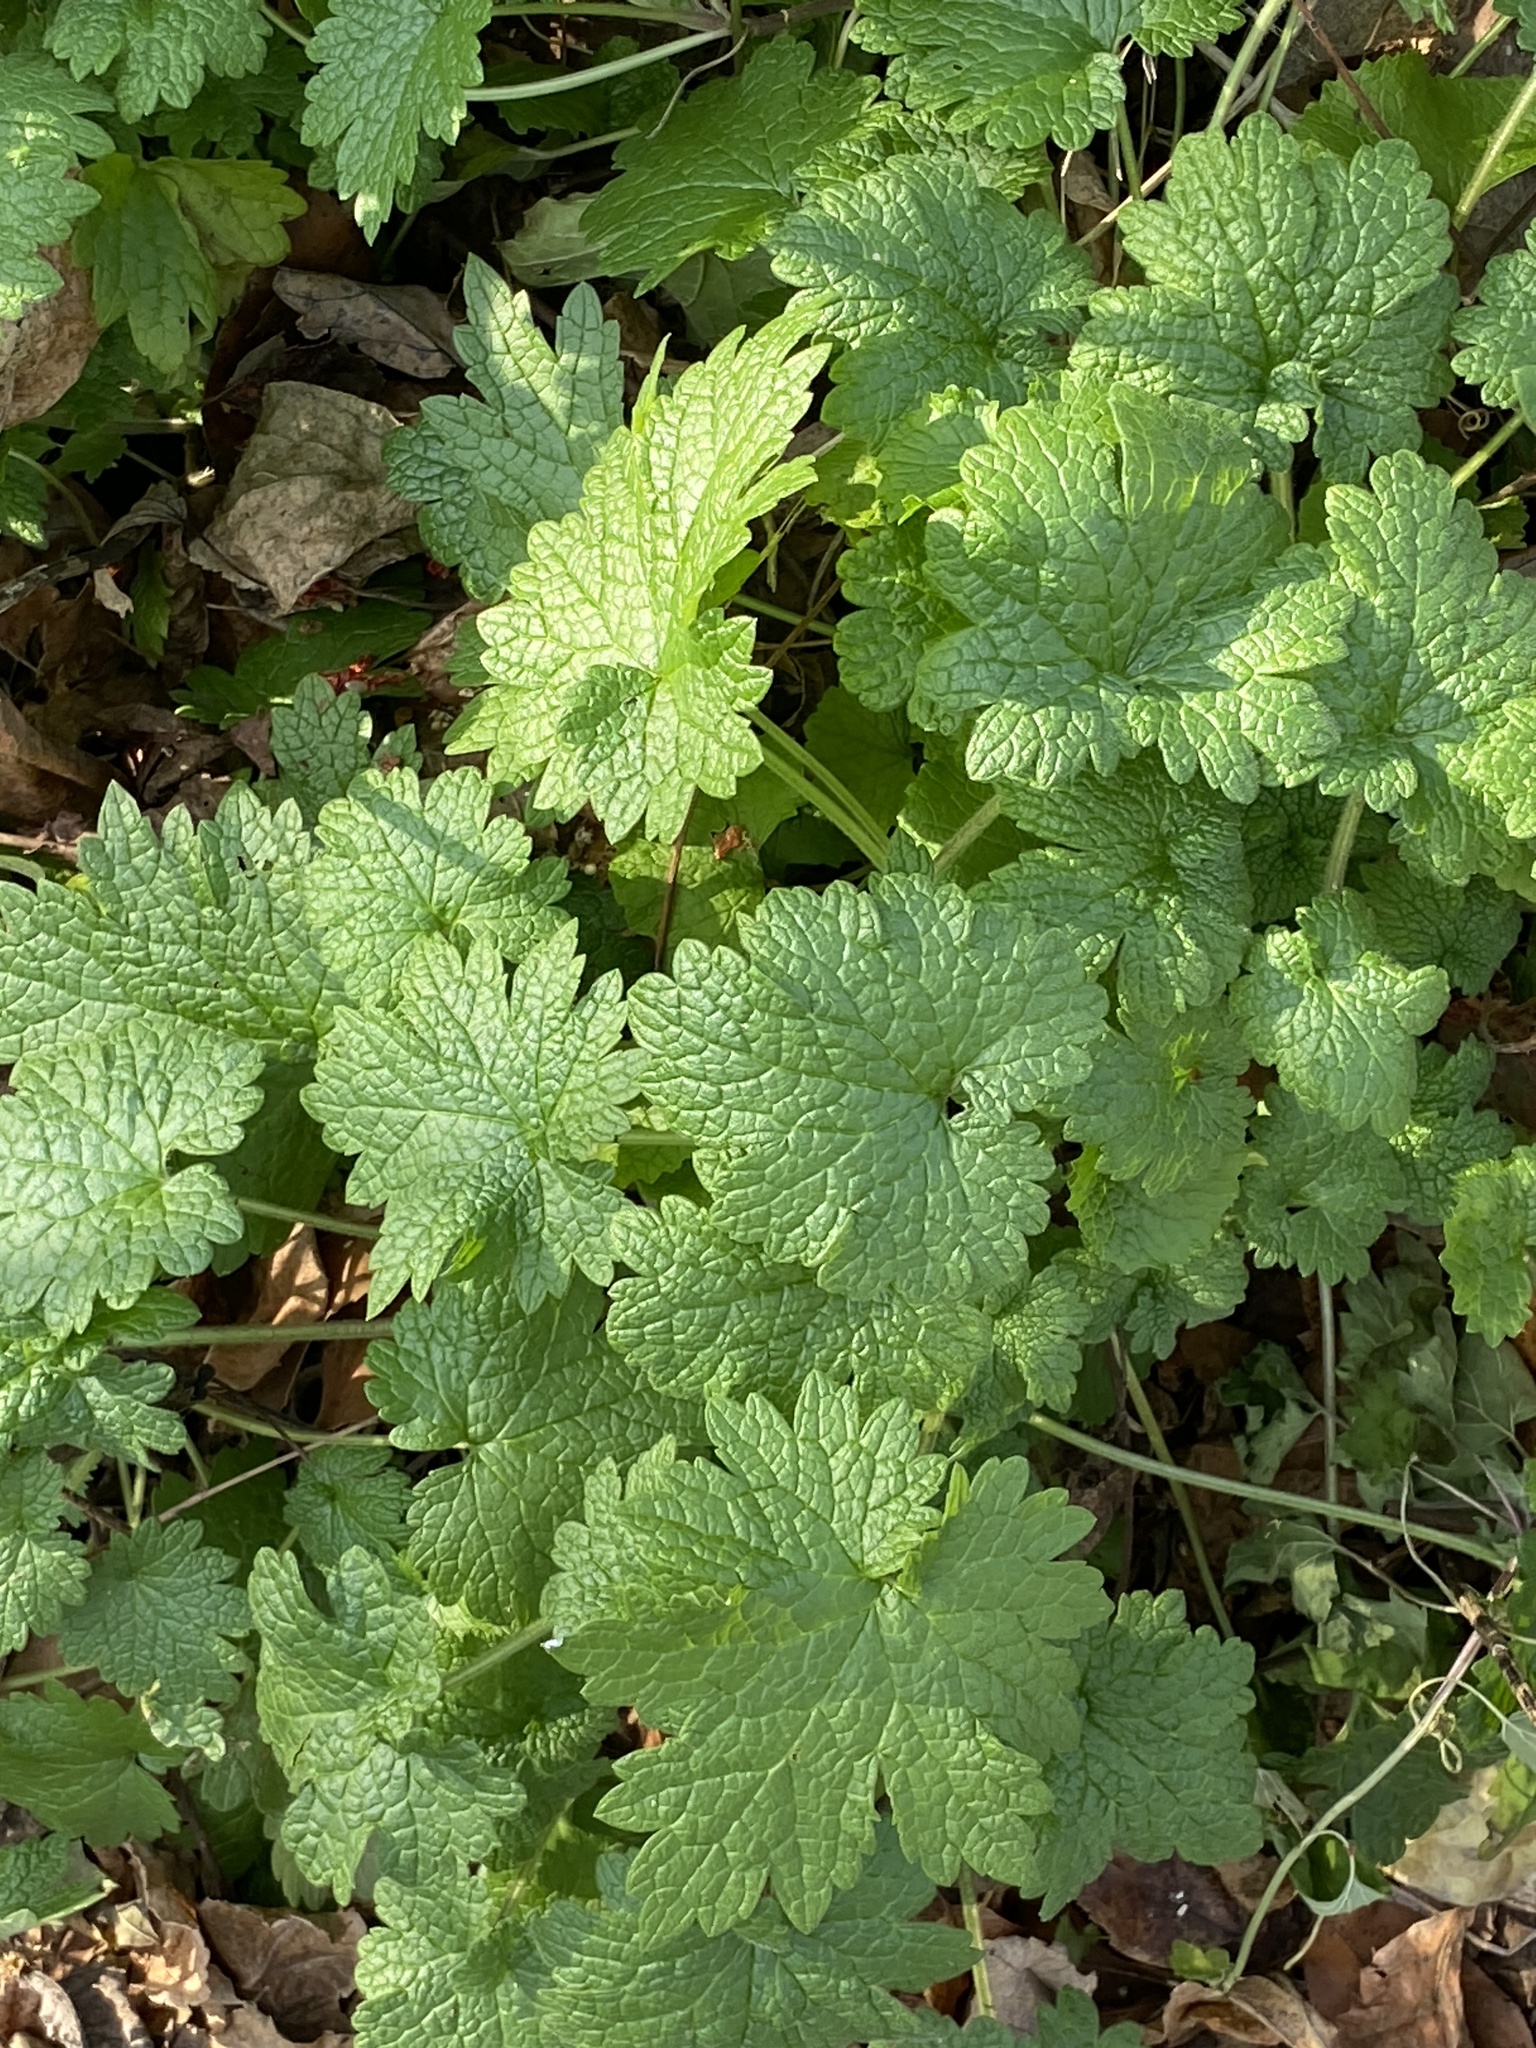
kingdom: Plantae
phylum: Tracheophyta
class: Magnoliopsida
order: Lamiales
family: Lamiaceae
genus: Leonurus
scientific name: Leonurus cardiaca
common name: Motherwort
